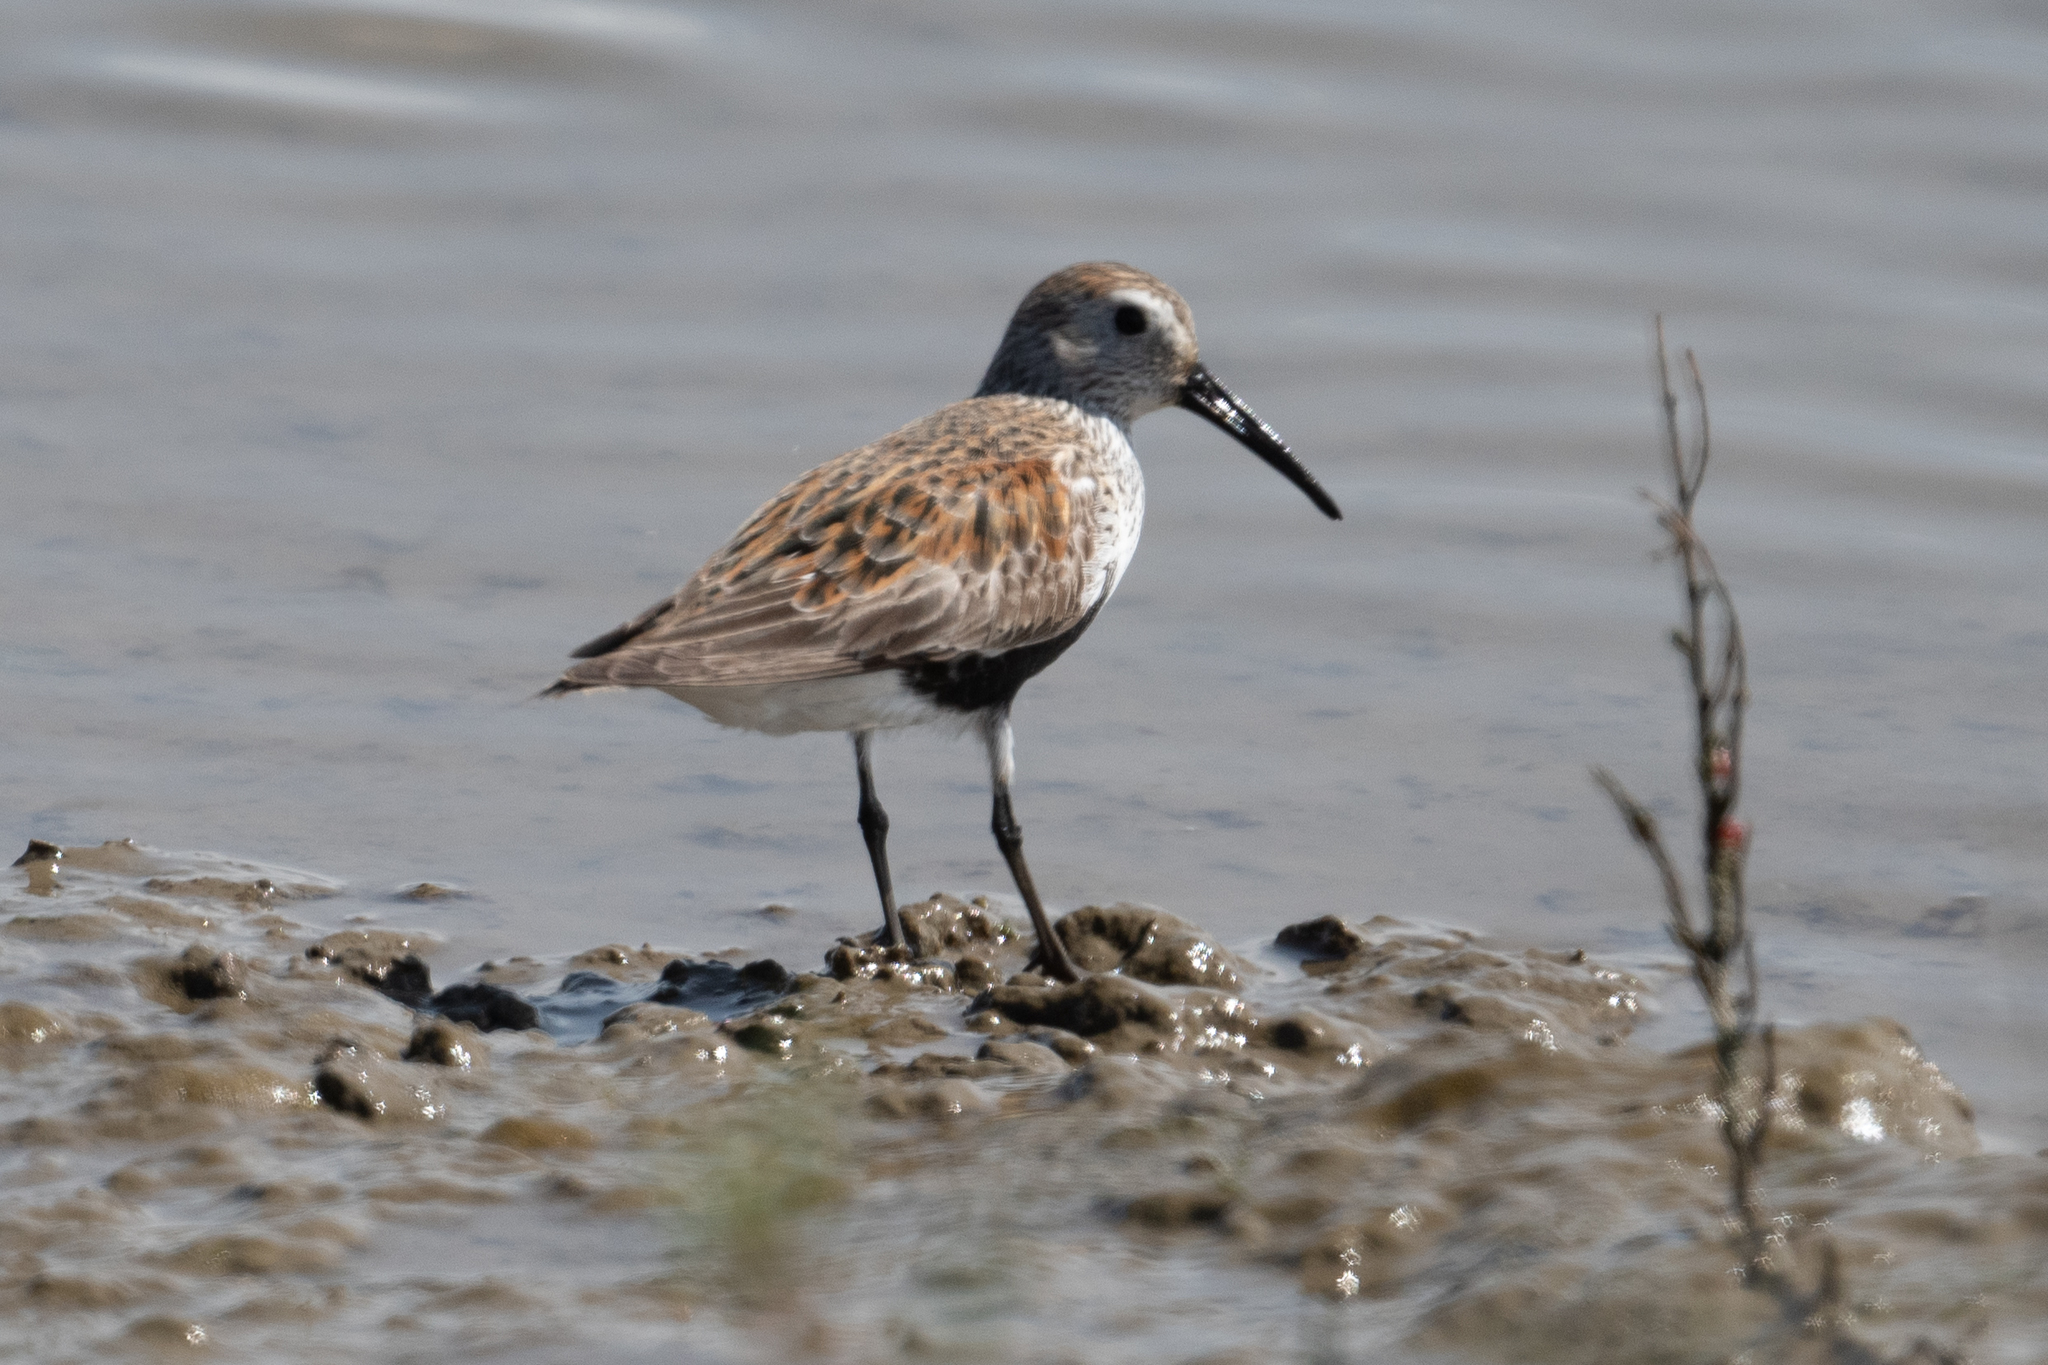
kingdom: Animalia
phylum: Chordata
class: Aves
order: Charadriiformes
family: Scolopacidae
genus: Calidris
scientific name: Calidris alpina
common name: Dunlin
